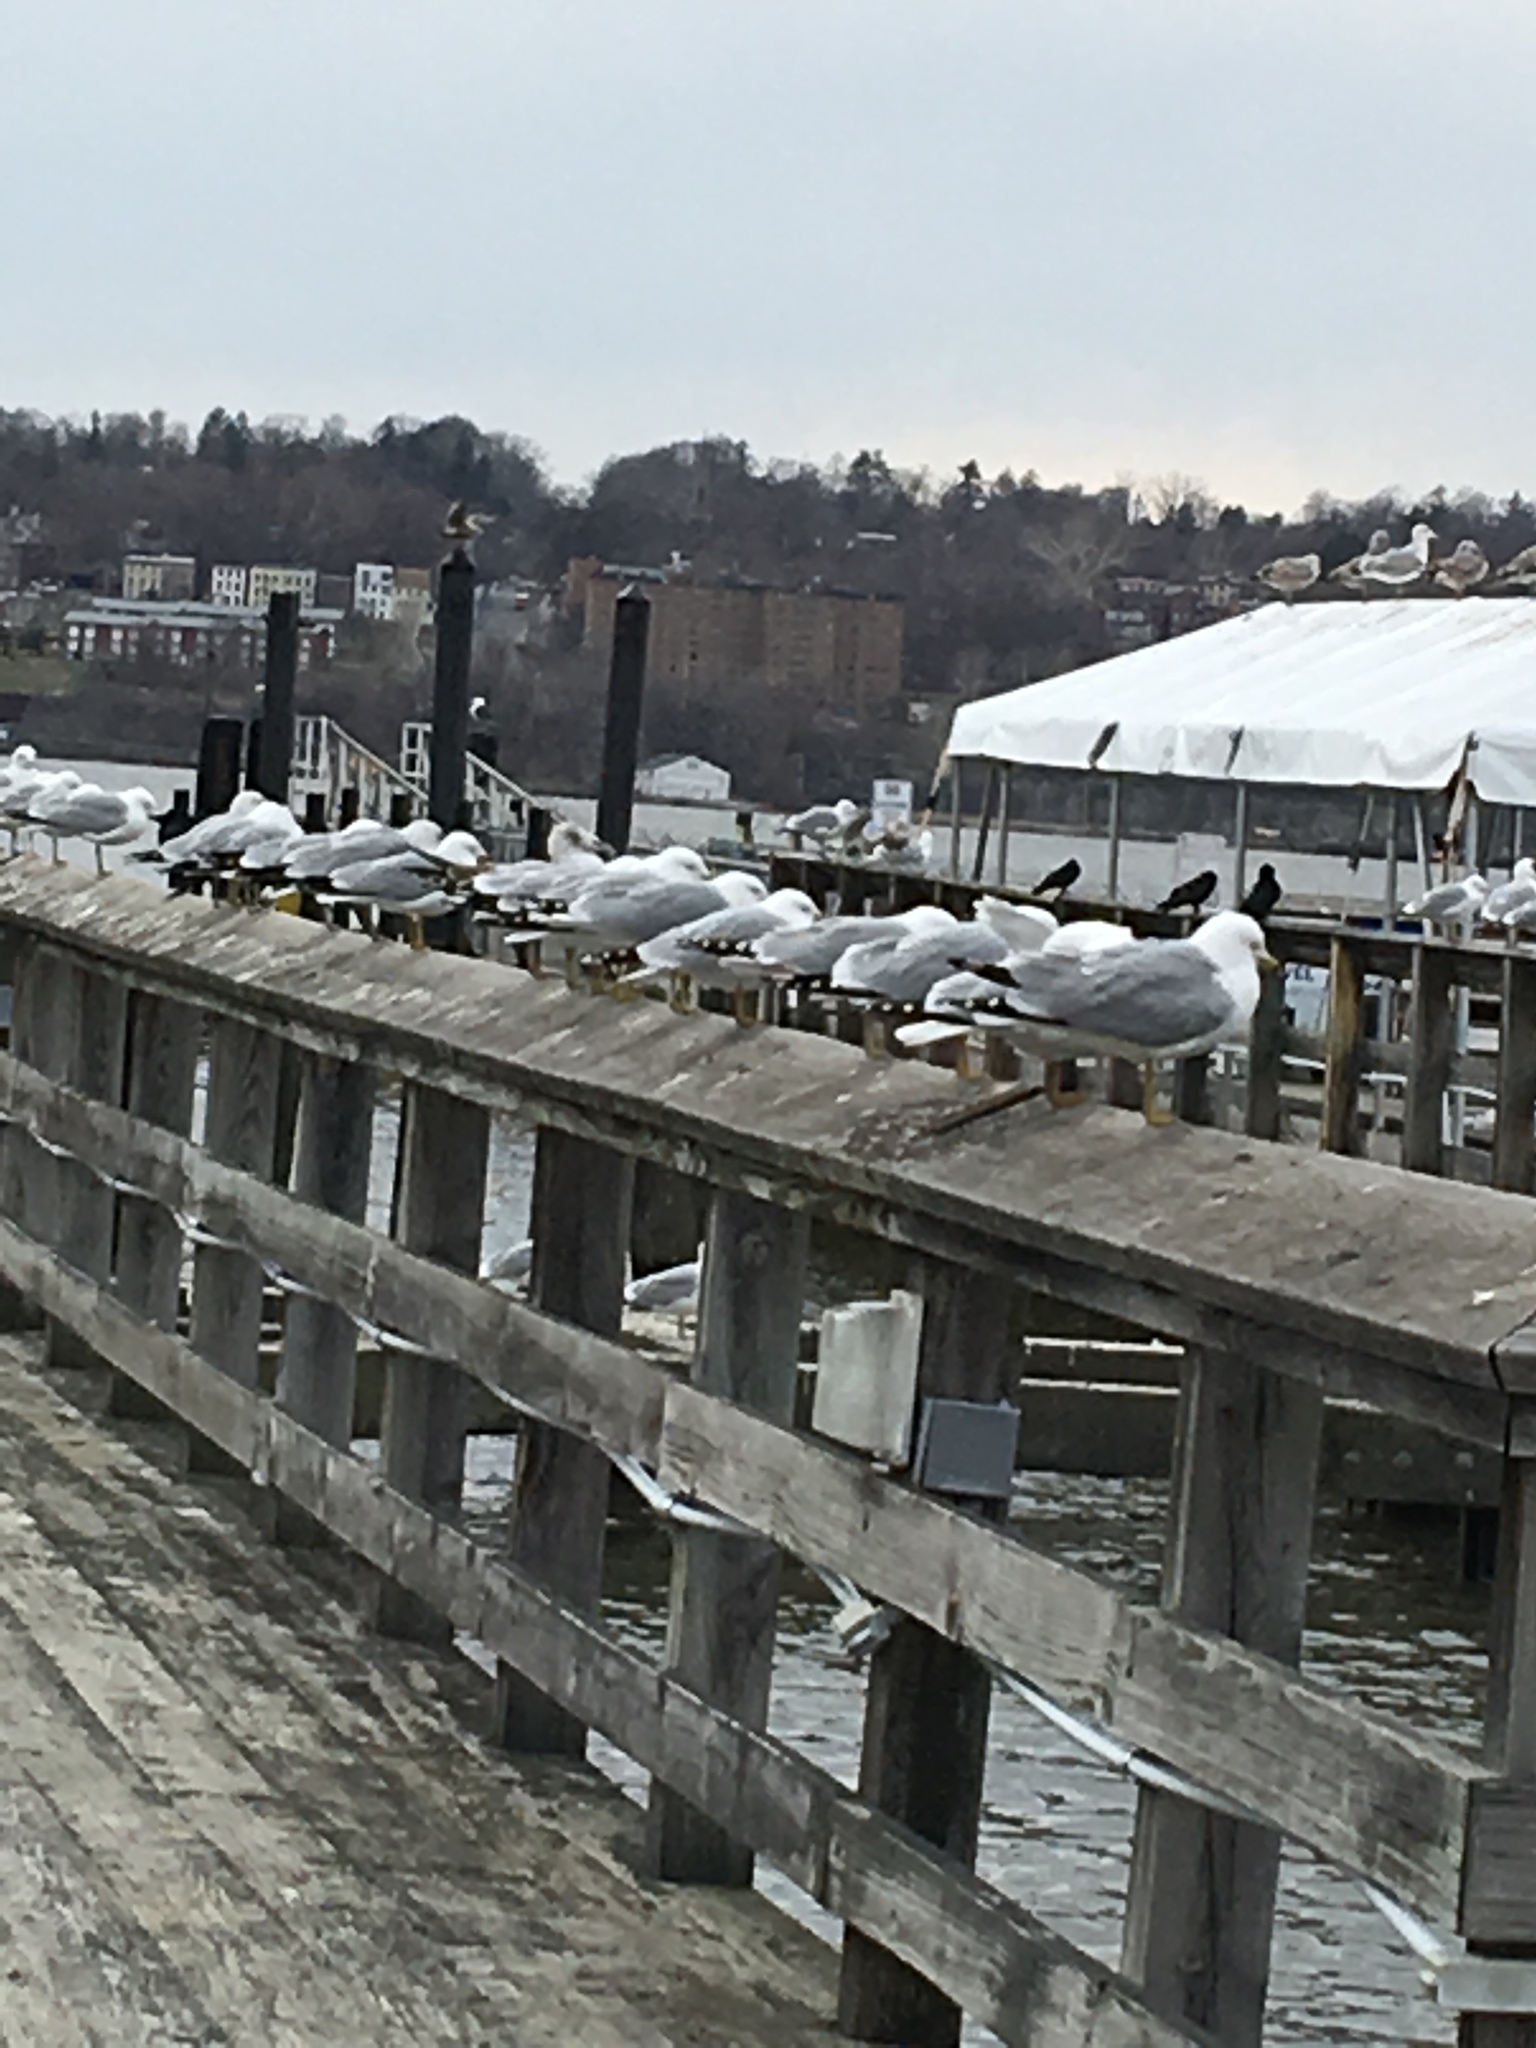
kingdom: Animalia
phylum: Chordata
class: Aves
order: Charadriiformes
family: Laridae
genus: Larus
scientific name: Larus delawarensis
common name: Ring-billed gull
